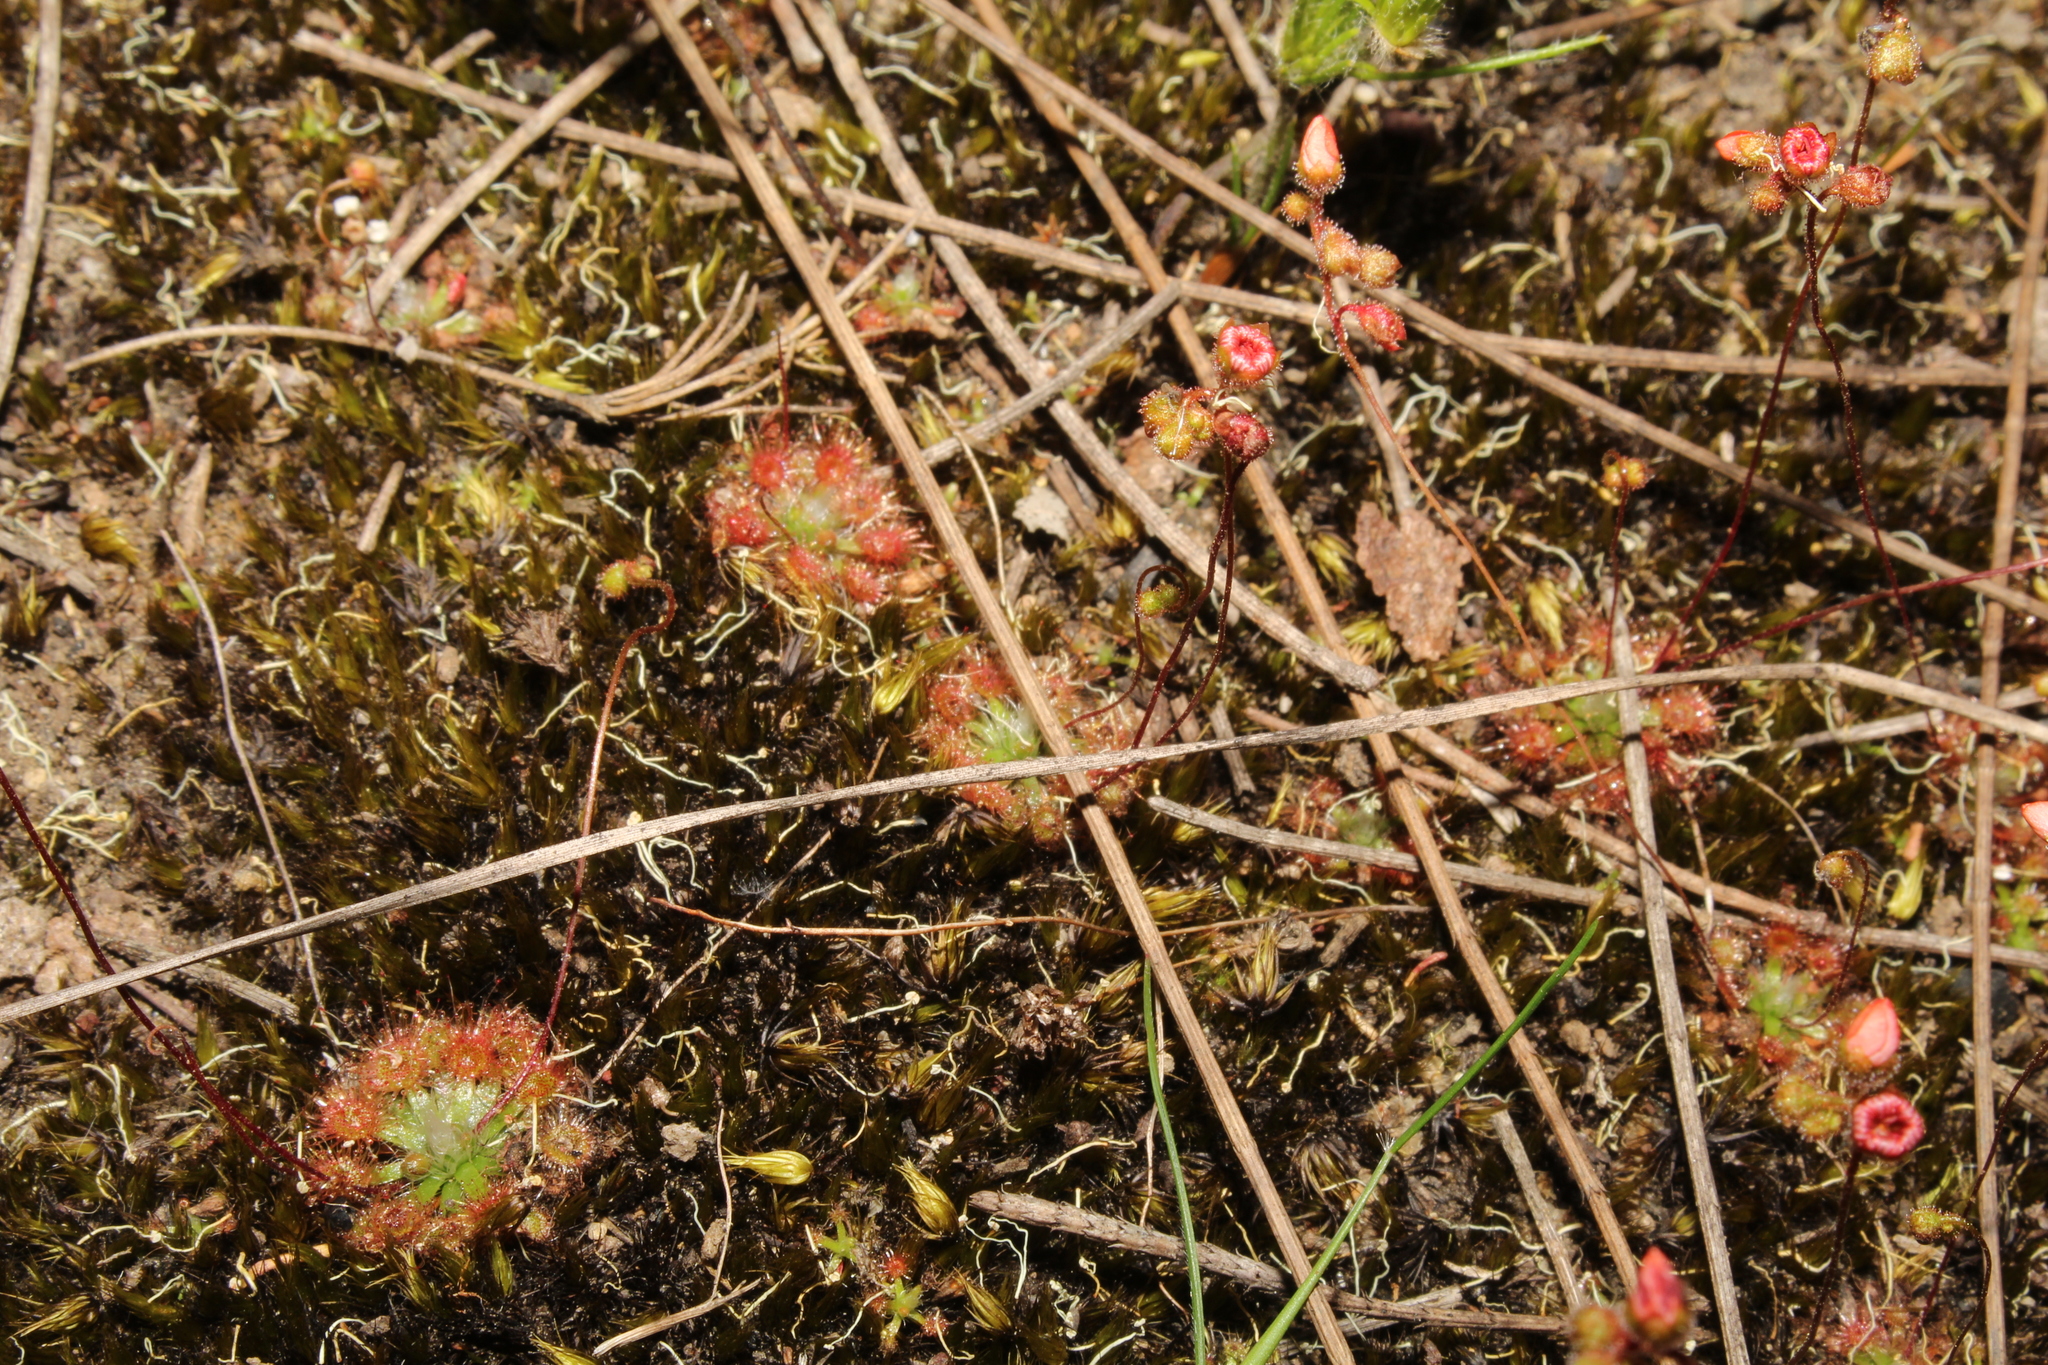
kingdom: Plantae
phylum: Tracheophyta
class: Magnoliopsida
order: Caryophyllales
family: Droseraceae
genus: Drosera
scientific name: Drosera platystigma
